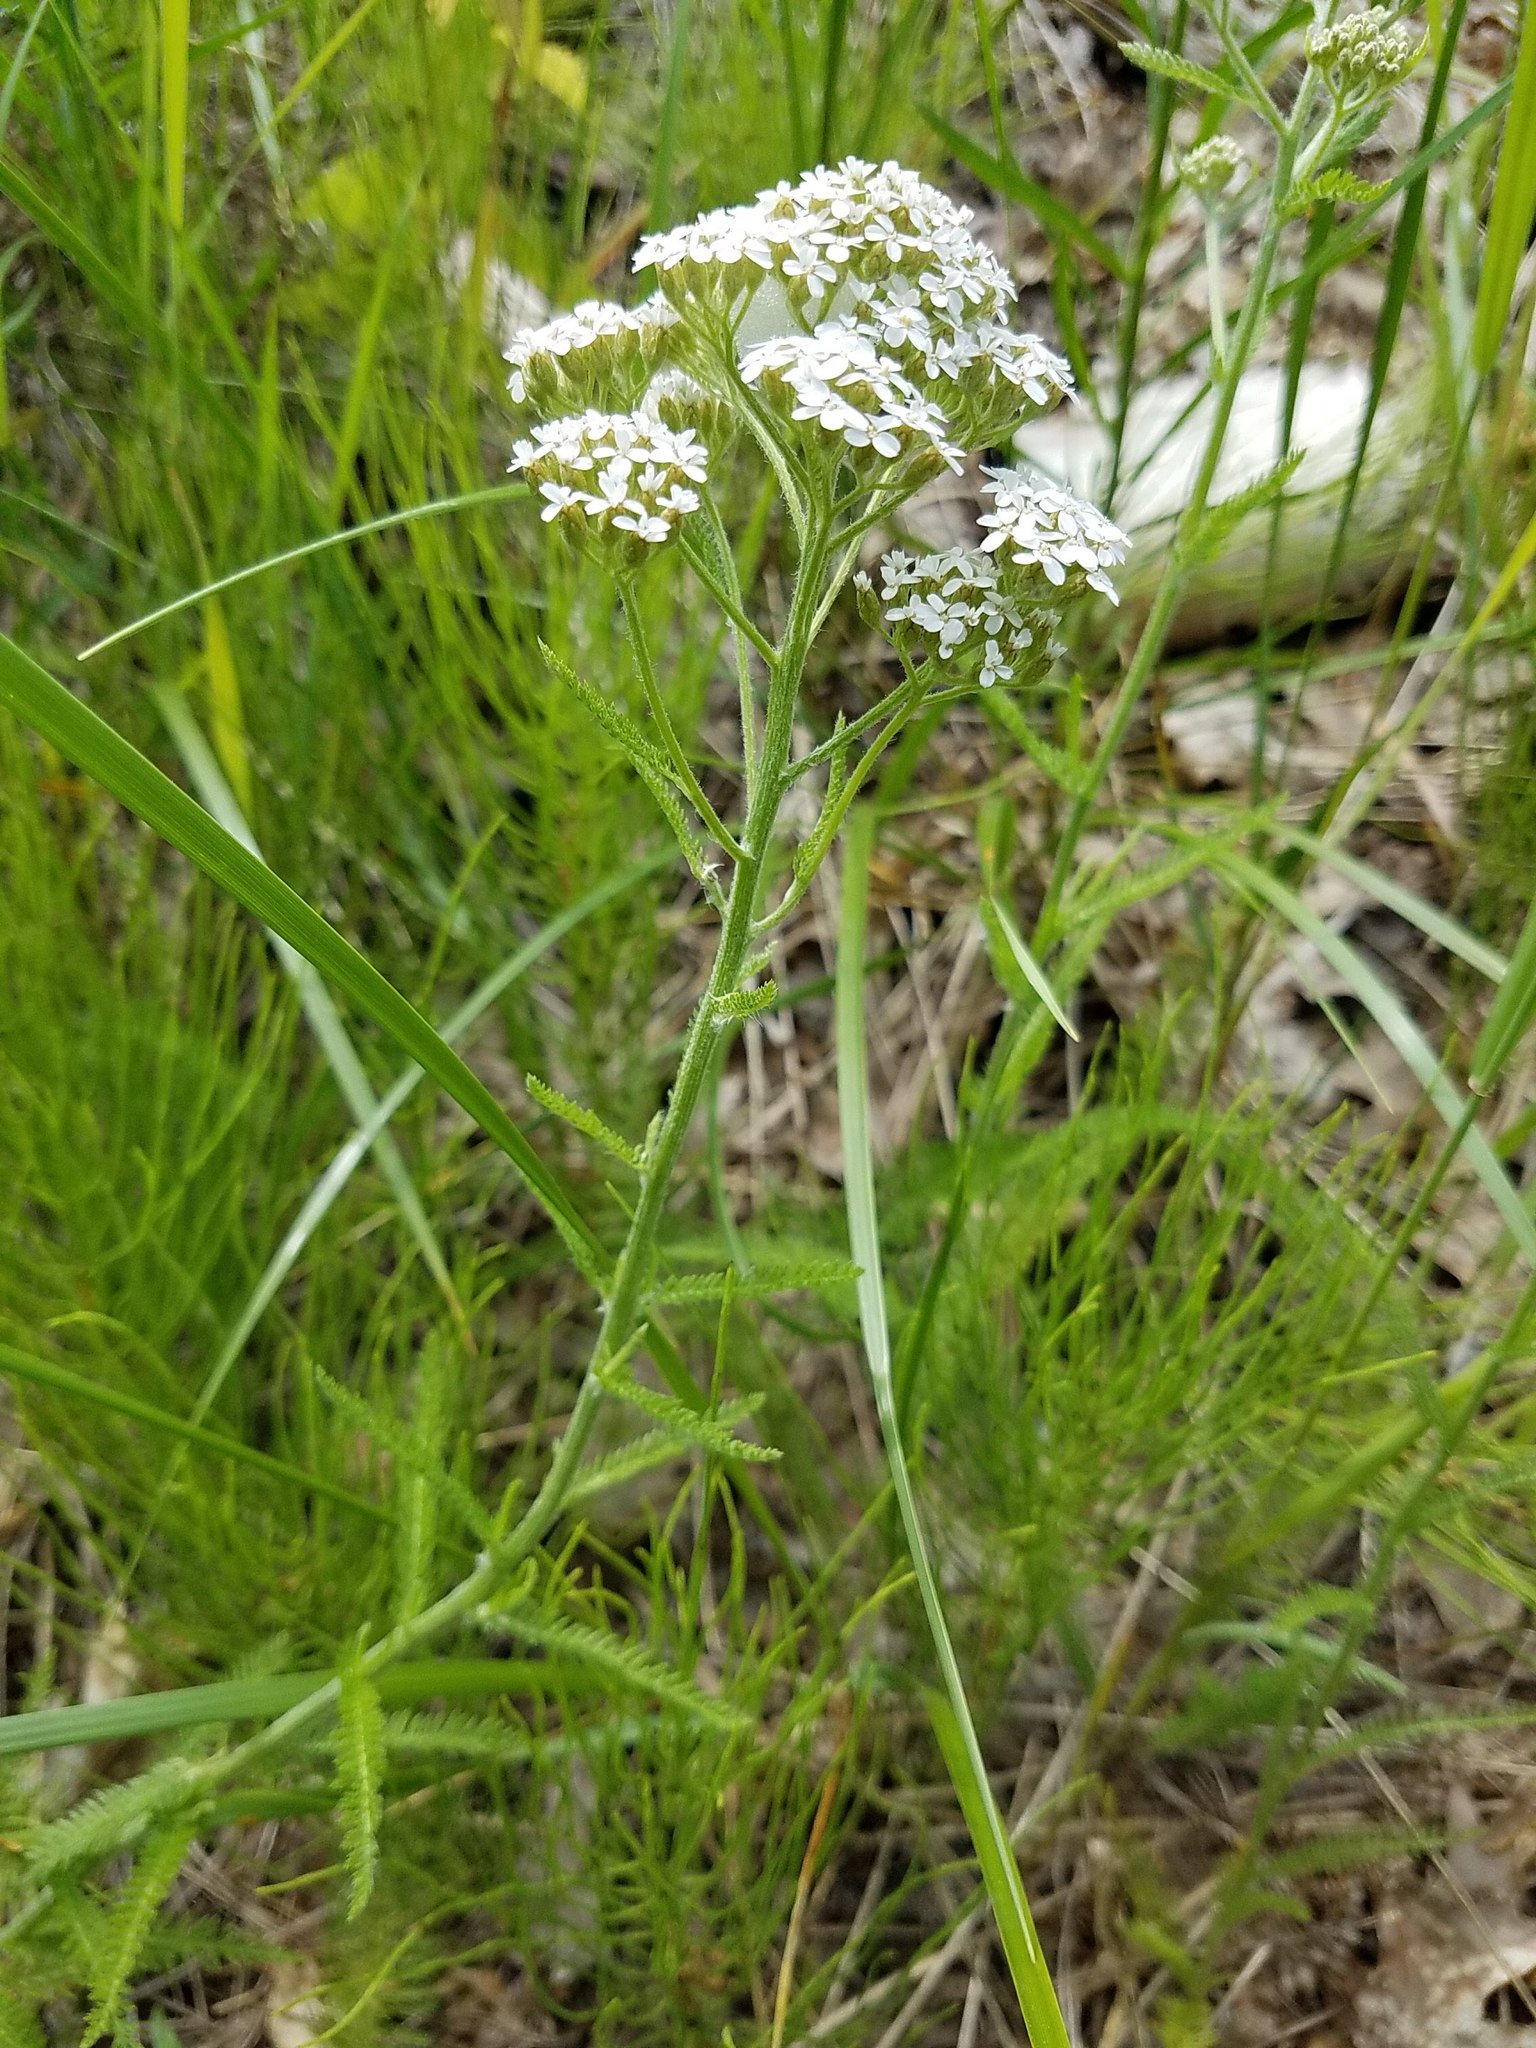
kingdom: Plantae
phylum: Tracheophyta
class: Magnoliopsida
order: Asterales
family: Asteraceae
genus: Achillea
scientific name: Achillea millefolium
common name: Yarrow
